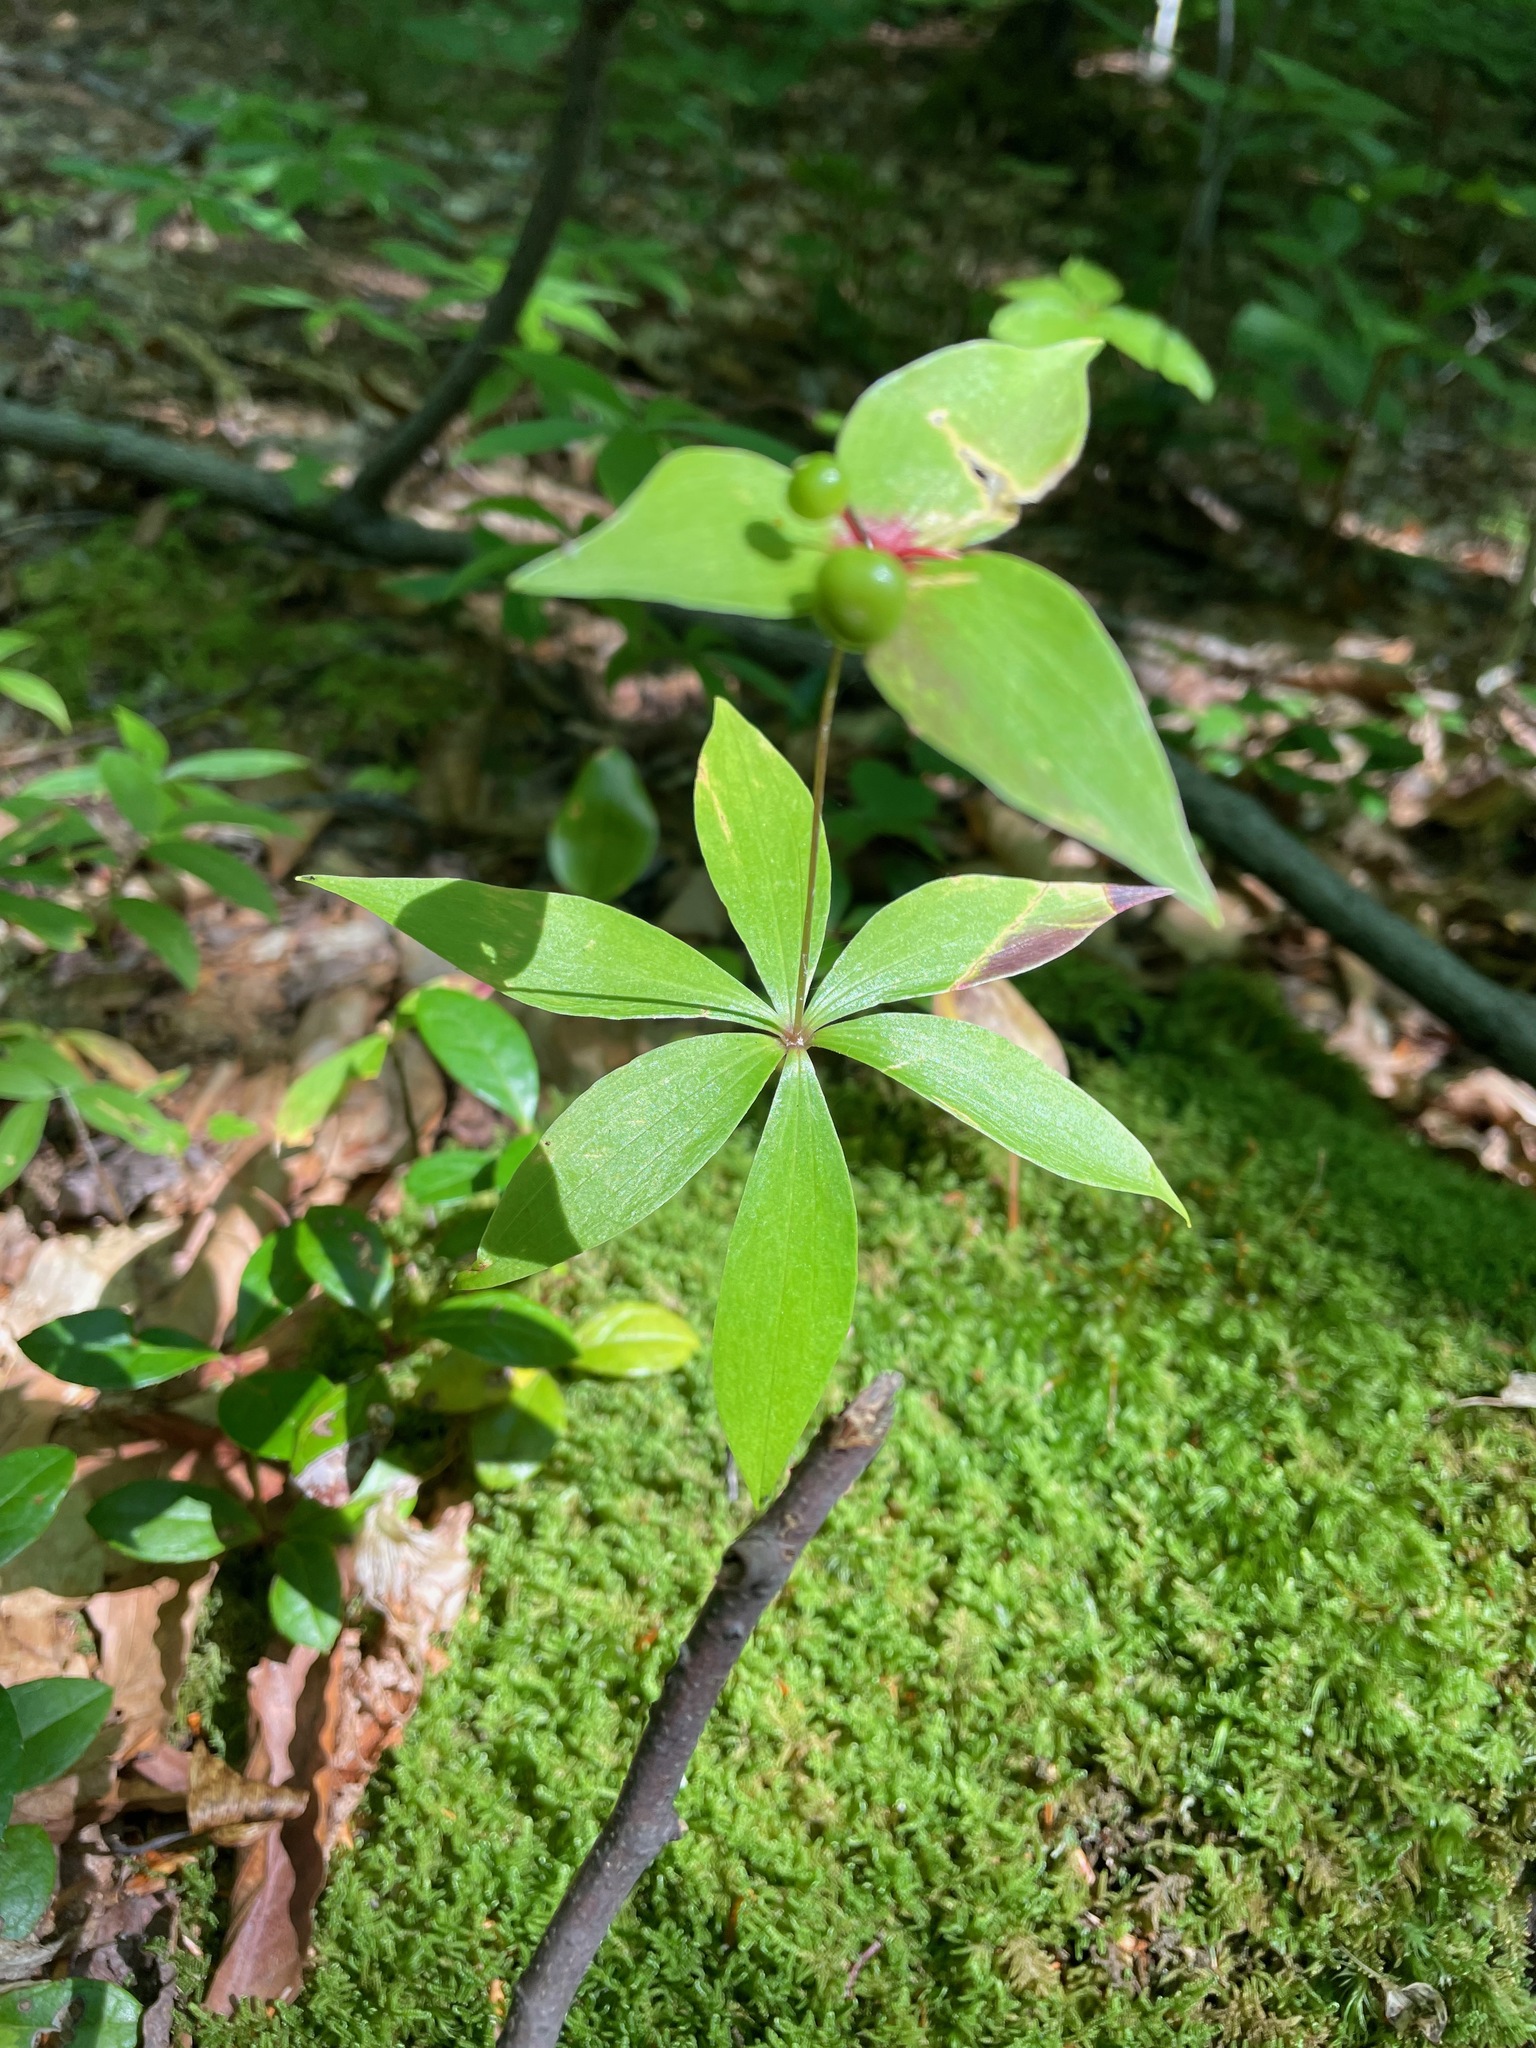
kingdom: Plantae
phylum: Tracheophyta
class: Liliopsida
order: Liliales
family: Liliaceae
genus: Medeola
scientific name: Medeola virginiana
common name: Indian cucumber-root
